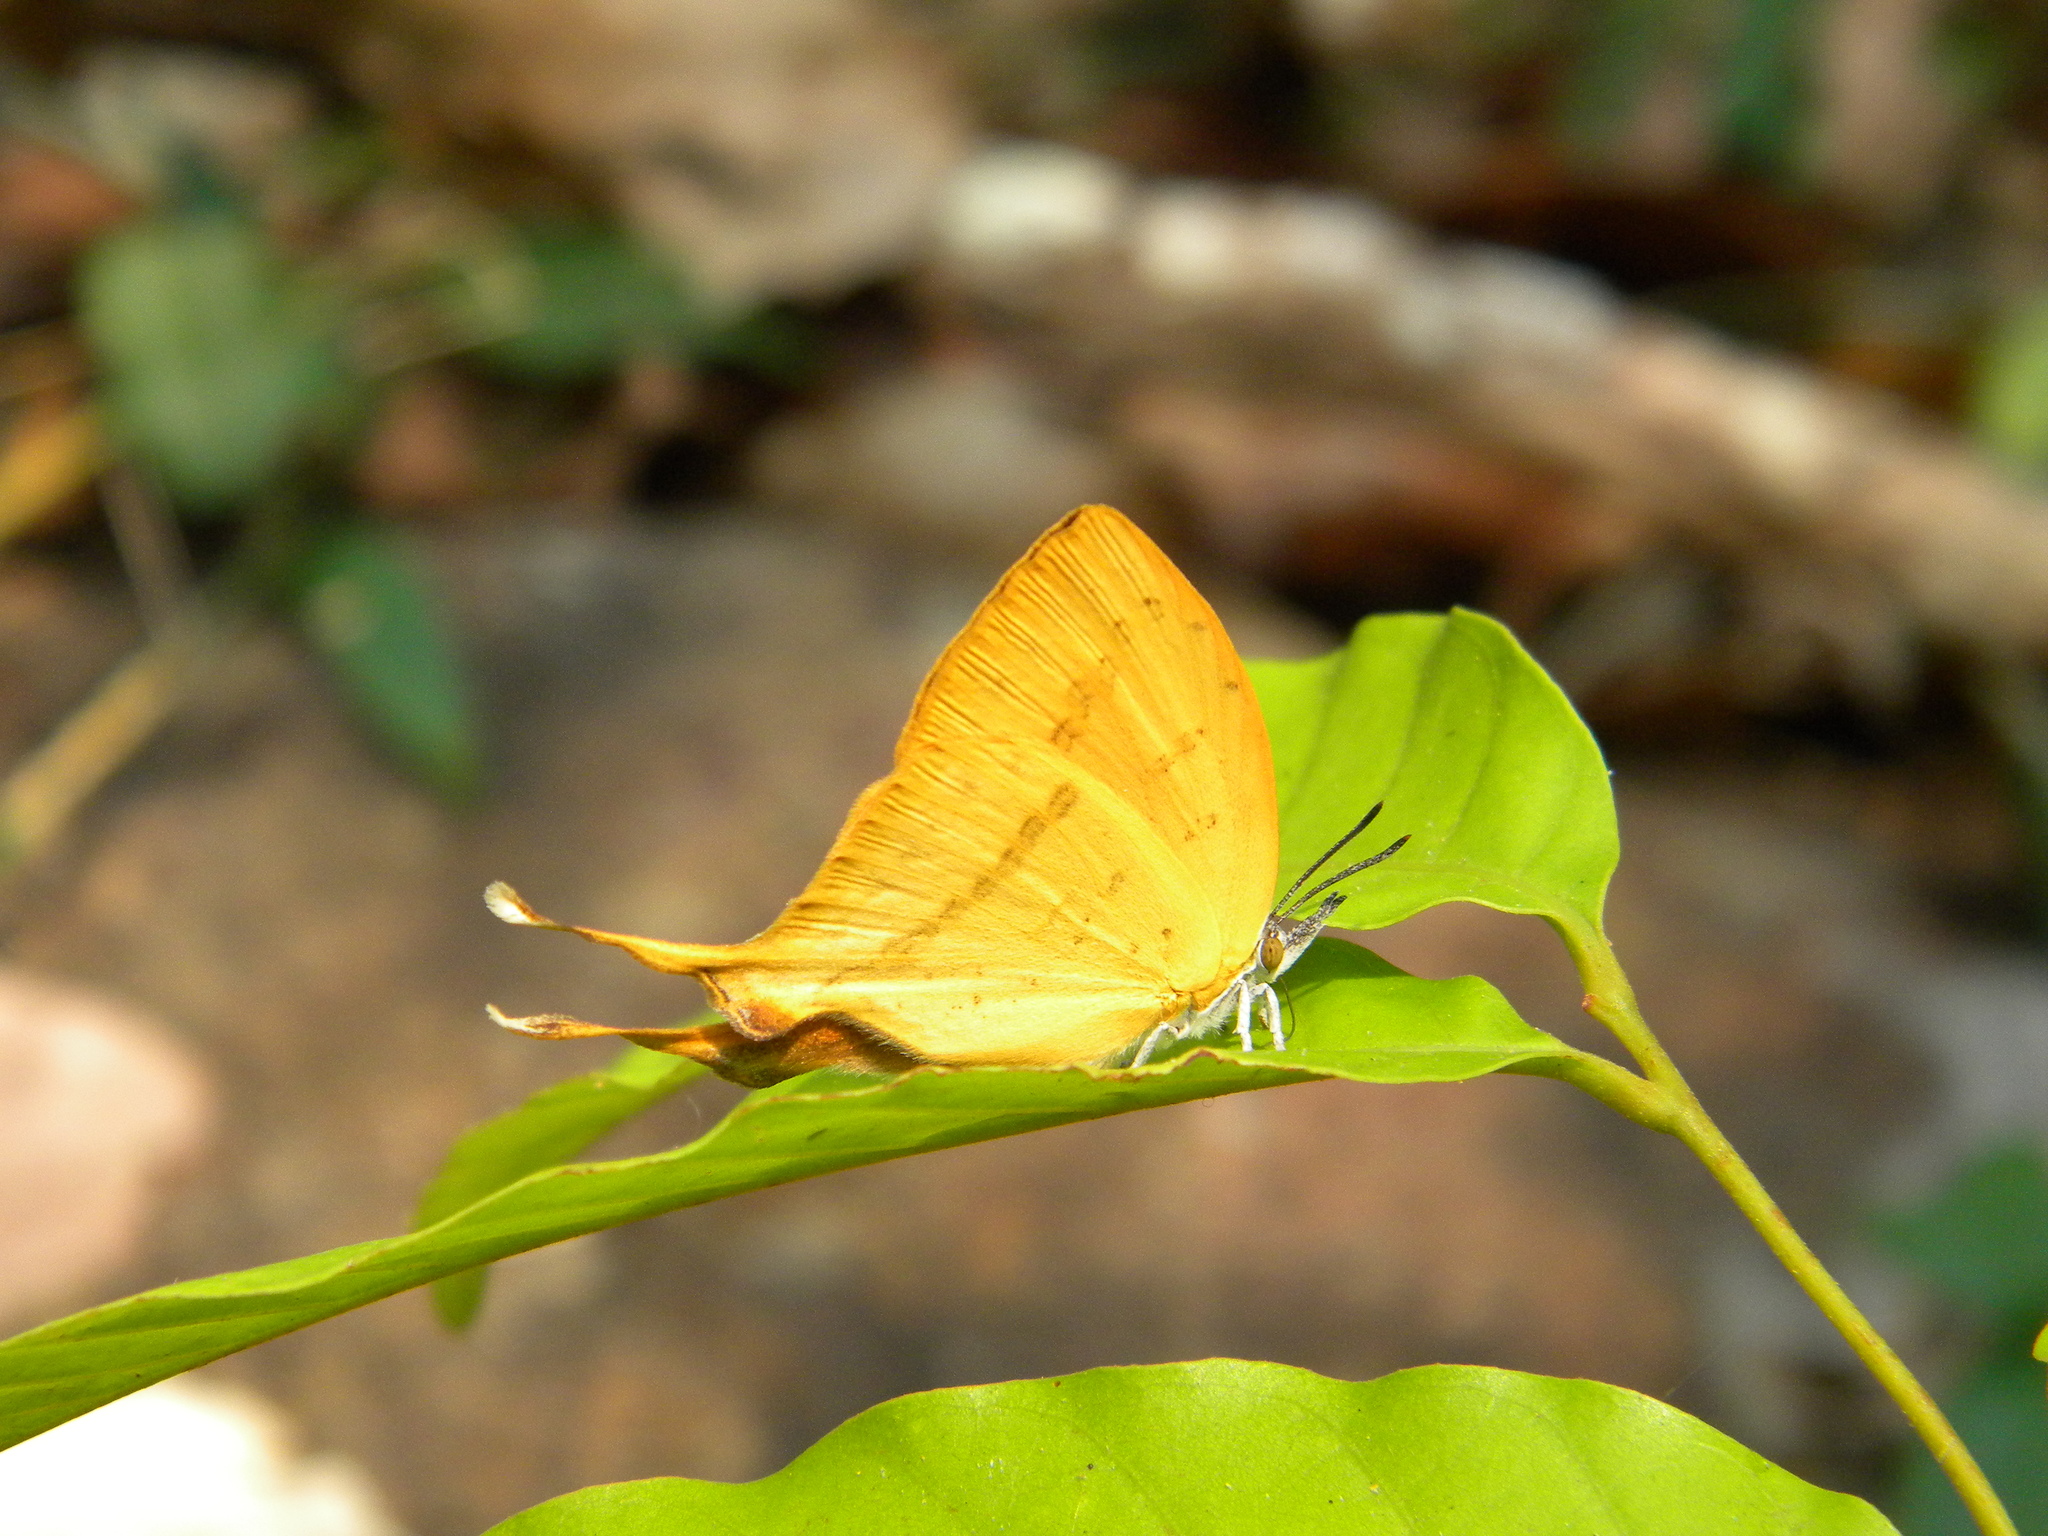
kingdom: Animalia
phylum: Arthropoda
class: Insecta
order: Lepidoptera
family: Lycaenidae
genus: Loxura
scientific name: Loxura atymnus
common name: Common yamfly
